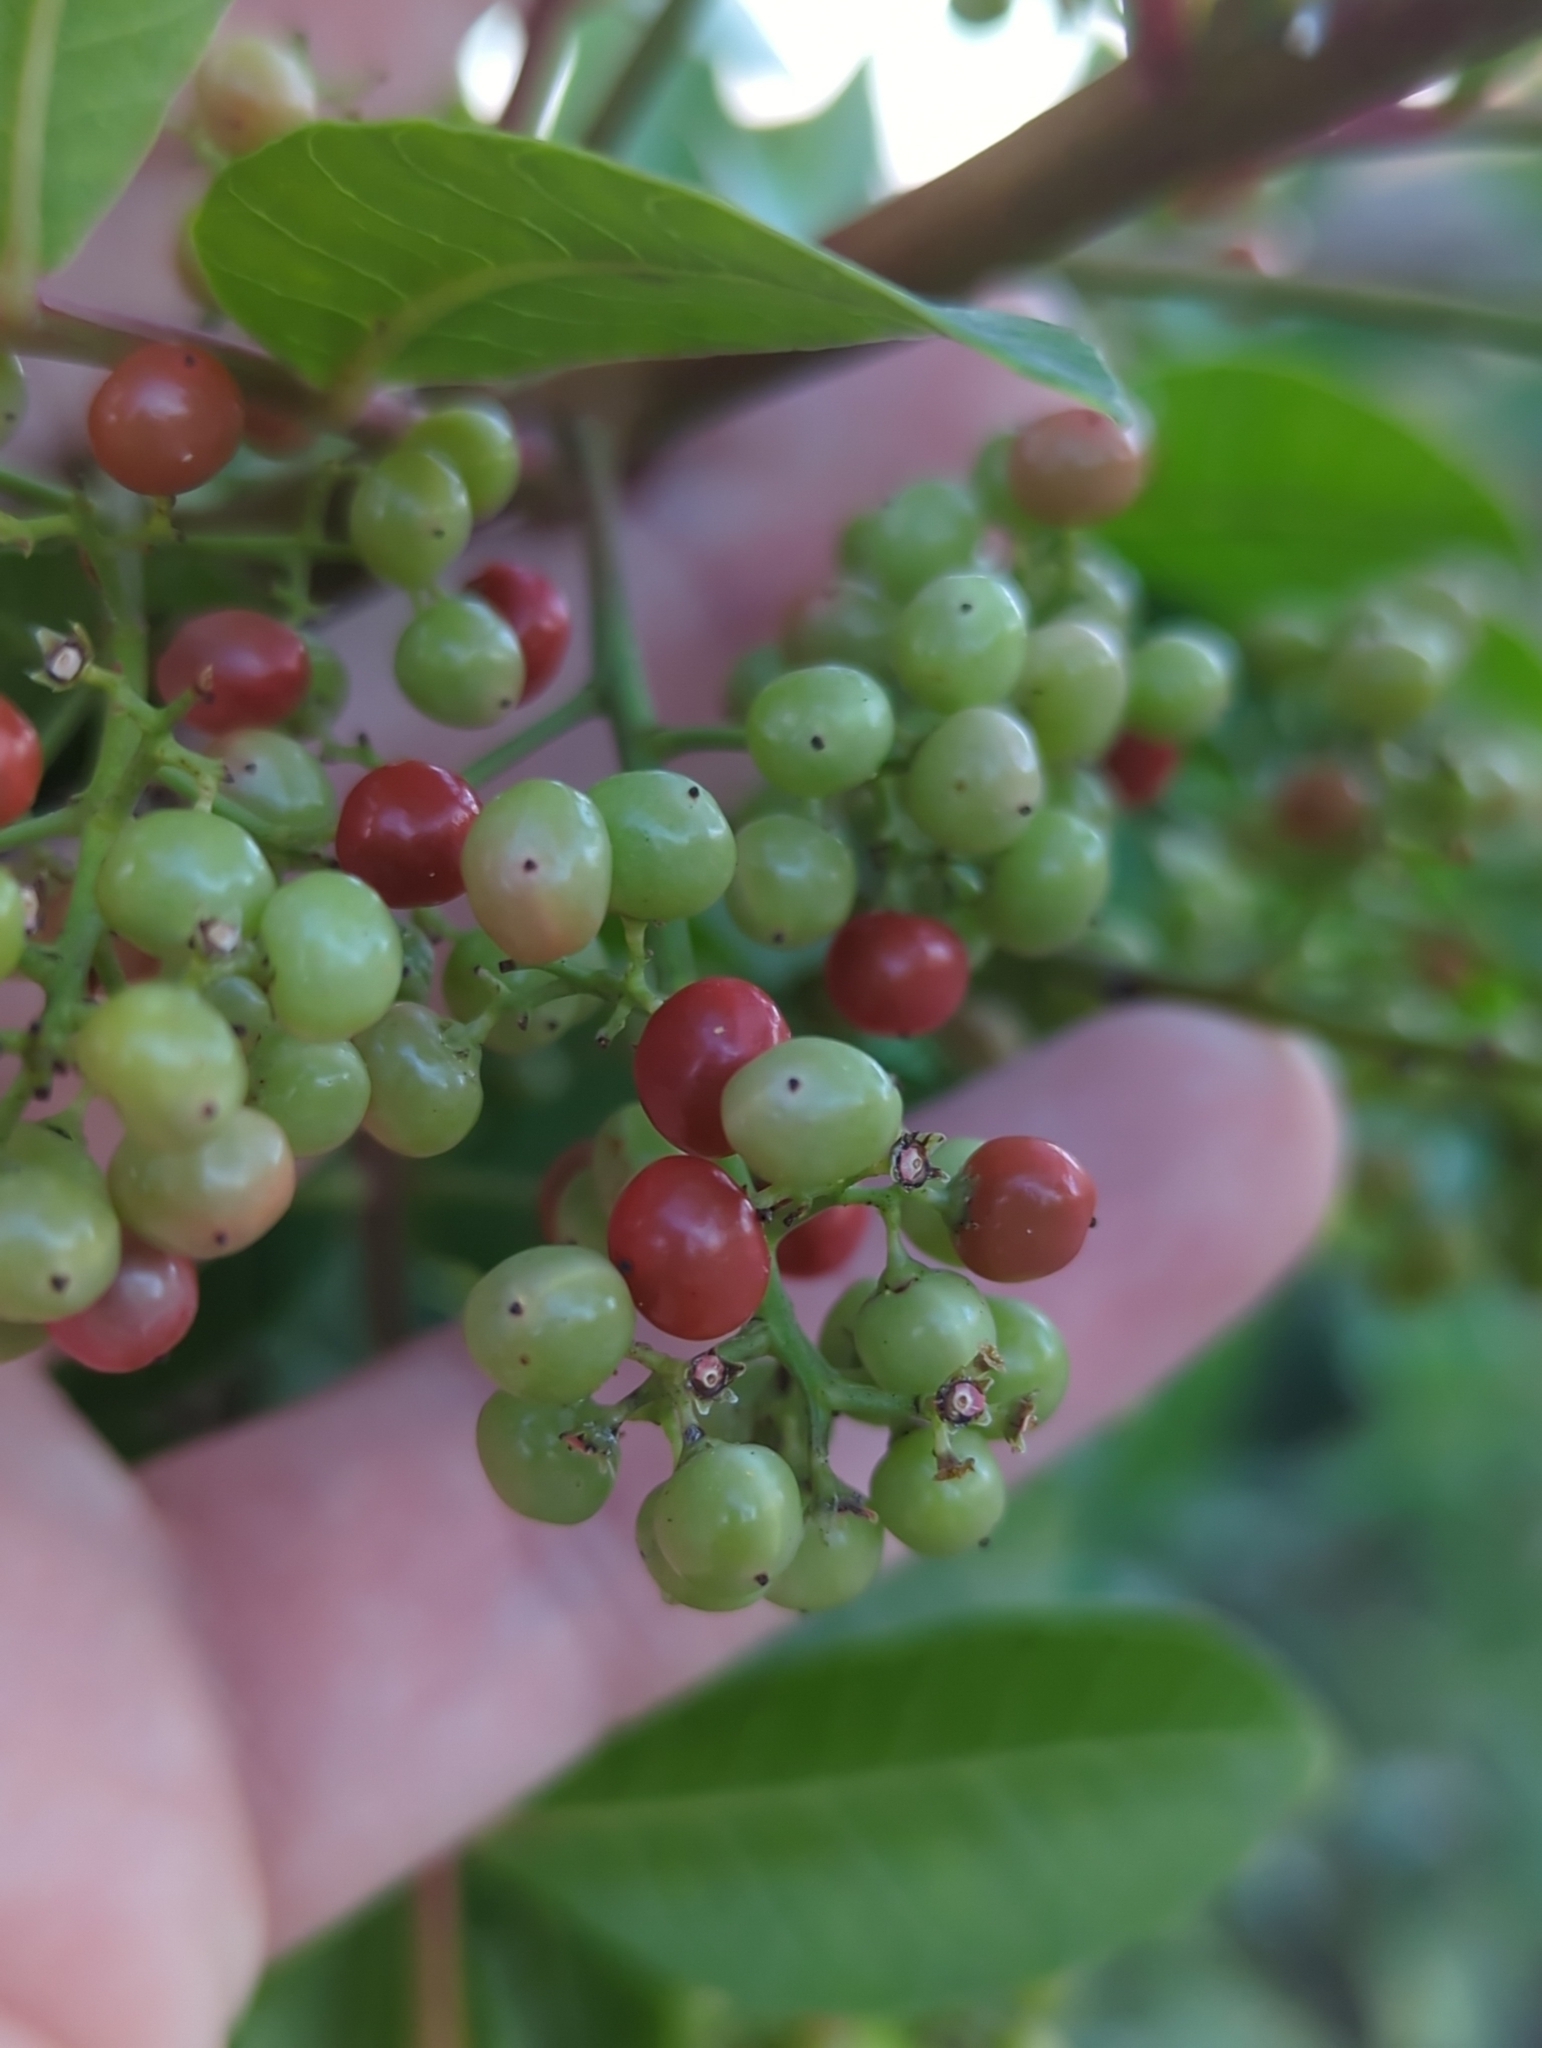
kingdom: Plantae
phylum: Tracheophyta
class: Magnoliopsida
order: Sapindales
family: Anacardiaceae
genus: Schinus
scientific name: Schinus terebinthifolia
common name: Brazilian peppertree
